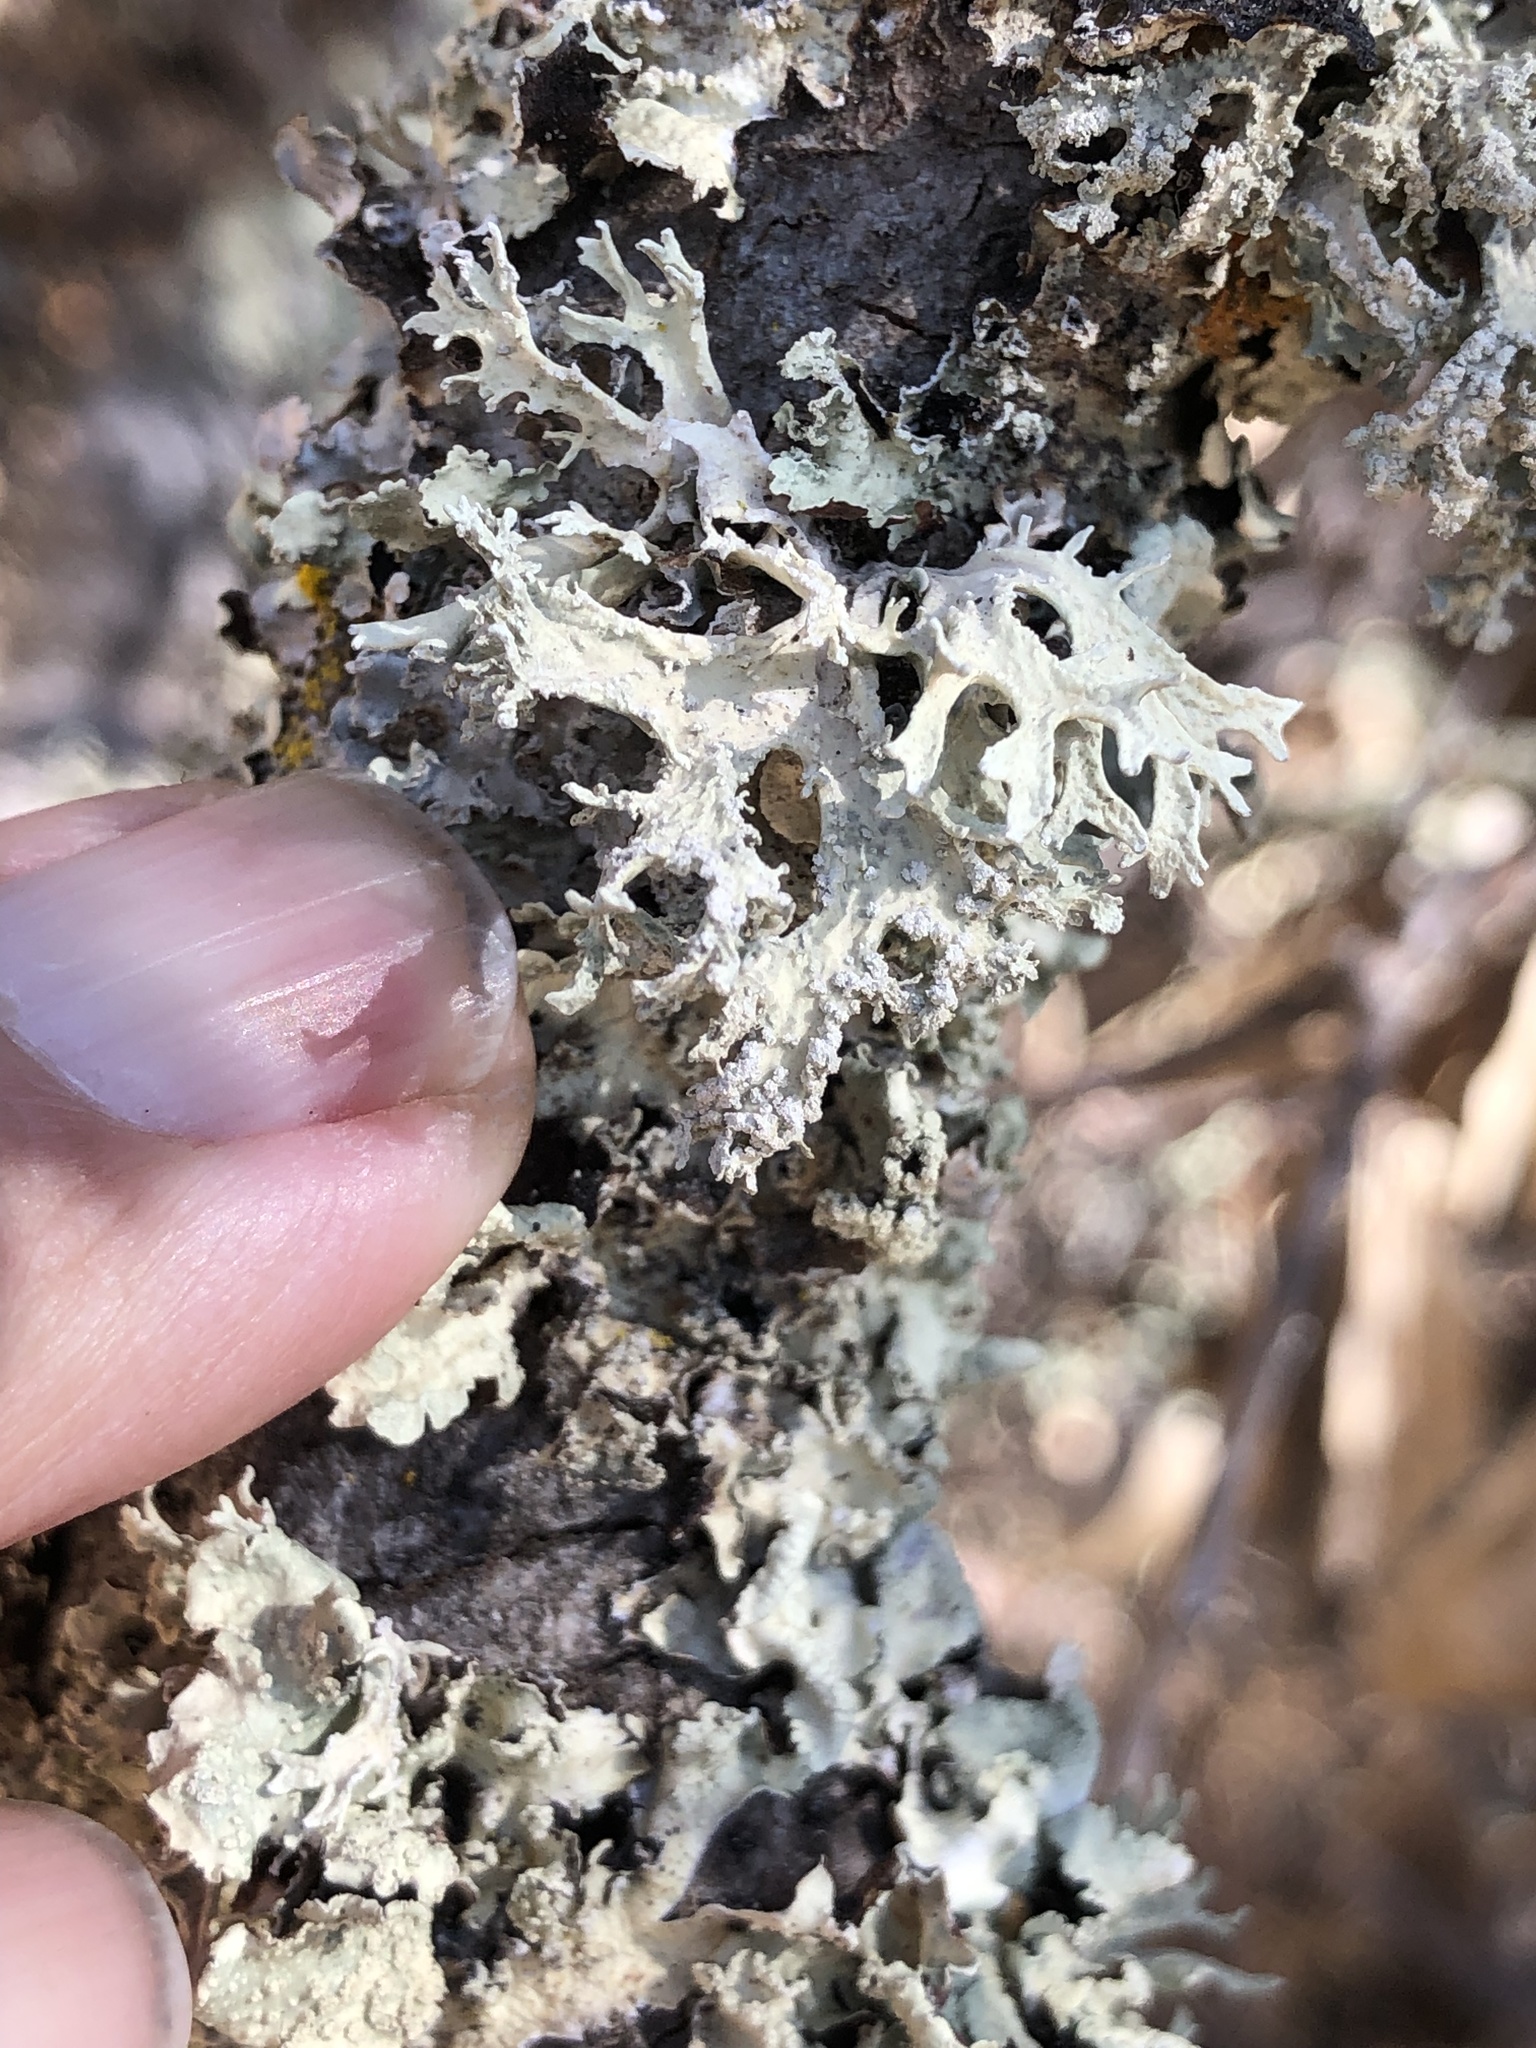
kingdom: Fungi
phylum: Ascomycota
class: Lecanoromycetes
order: Lecanorales
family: Parmeliaceae
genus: Evernia
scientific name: Evernia prunastri
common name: Oak moss
